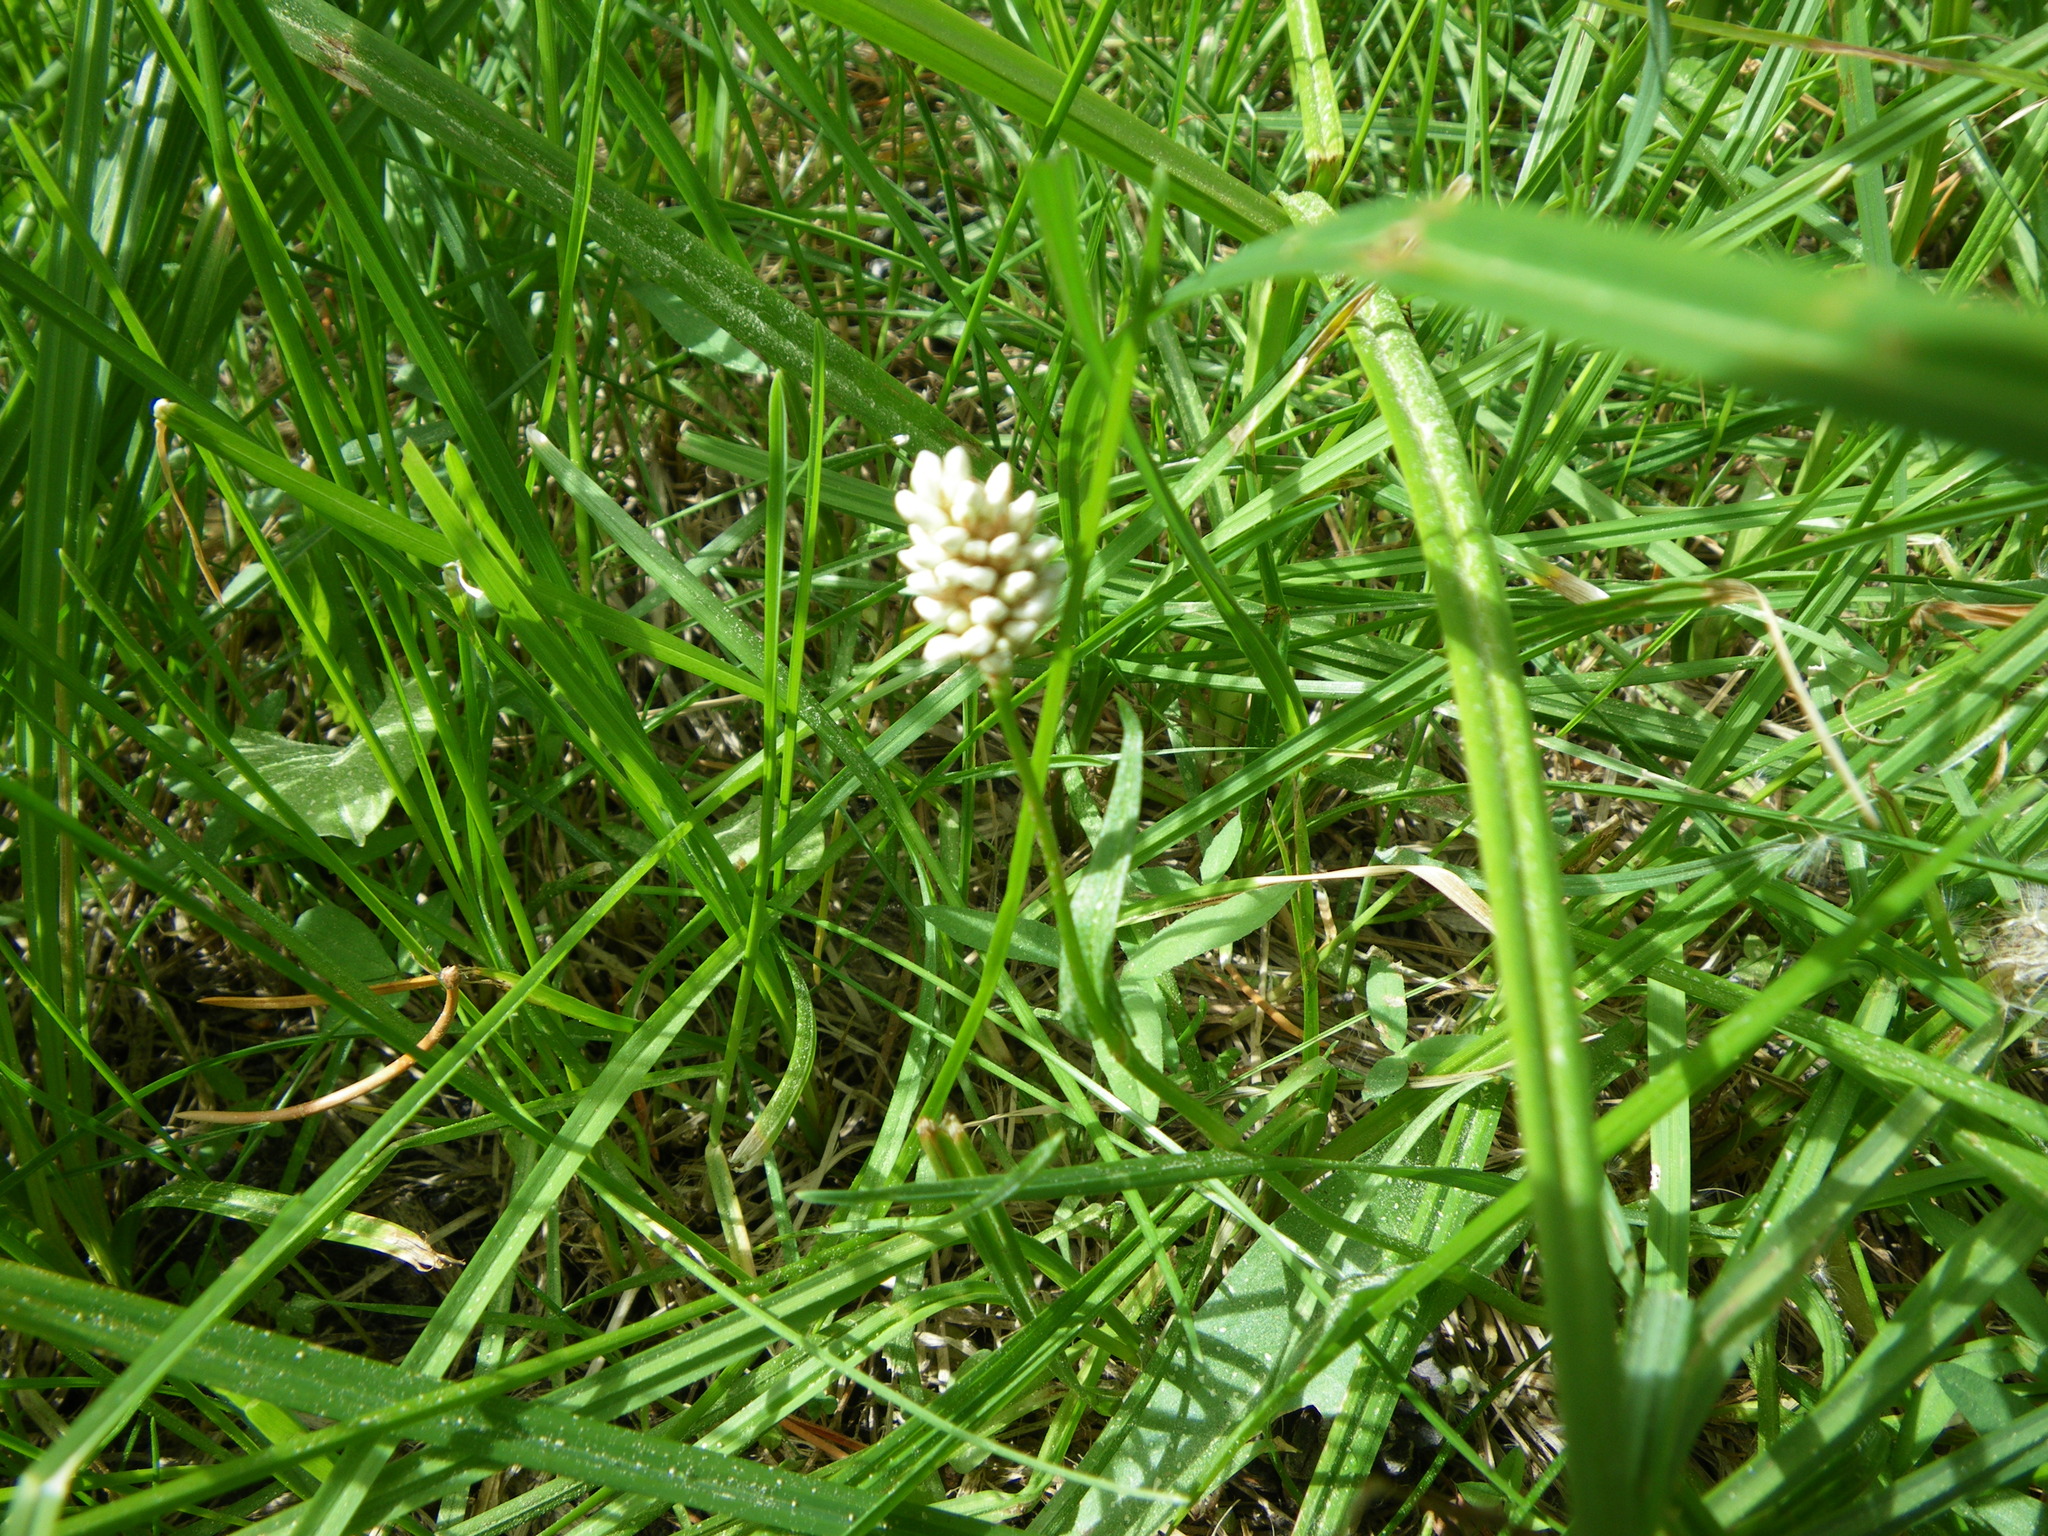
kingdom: Plantae
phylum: Tracheophyta
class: Magnoliopsida
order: Caryophyllales
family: Polygonaceae
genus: Bistorta
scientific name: Bistorta bistortoides
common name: American bistort
